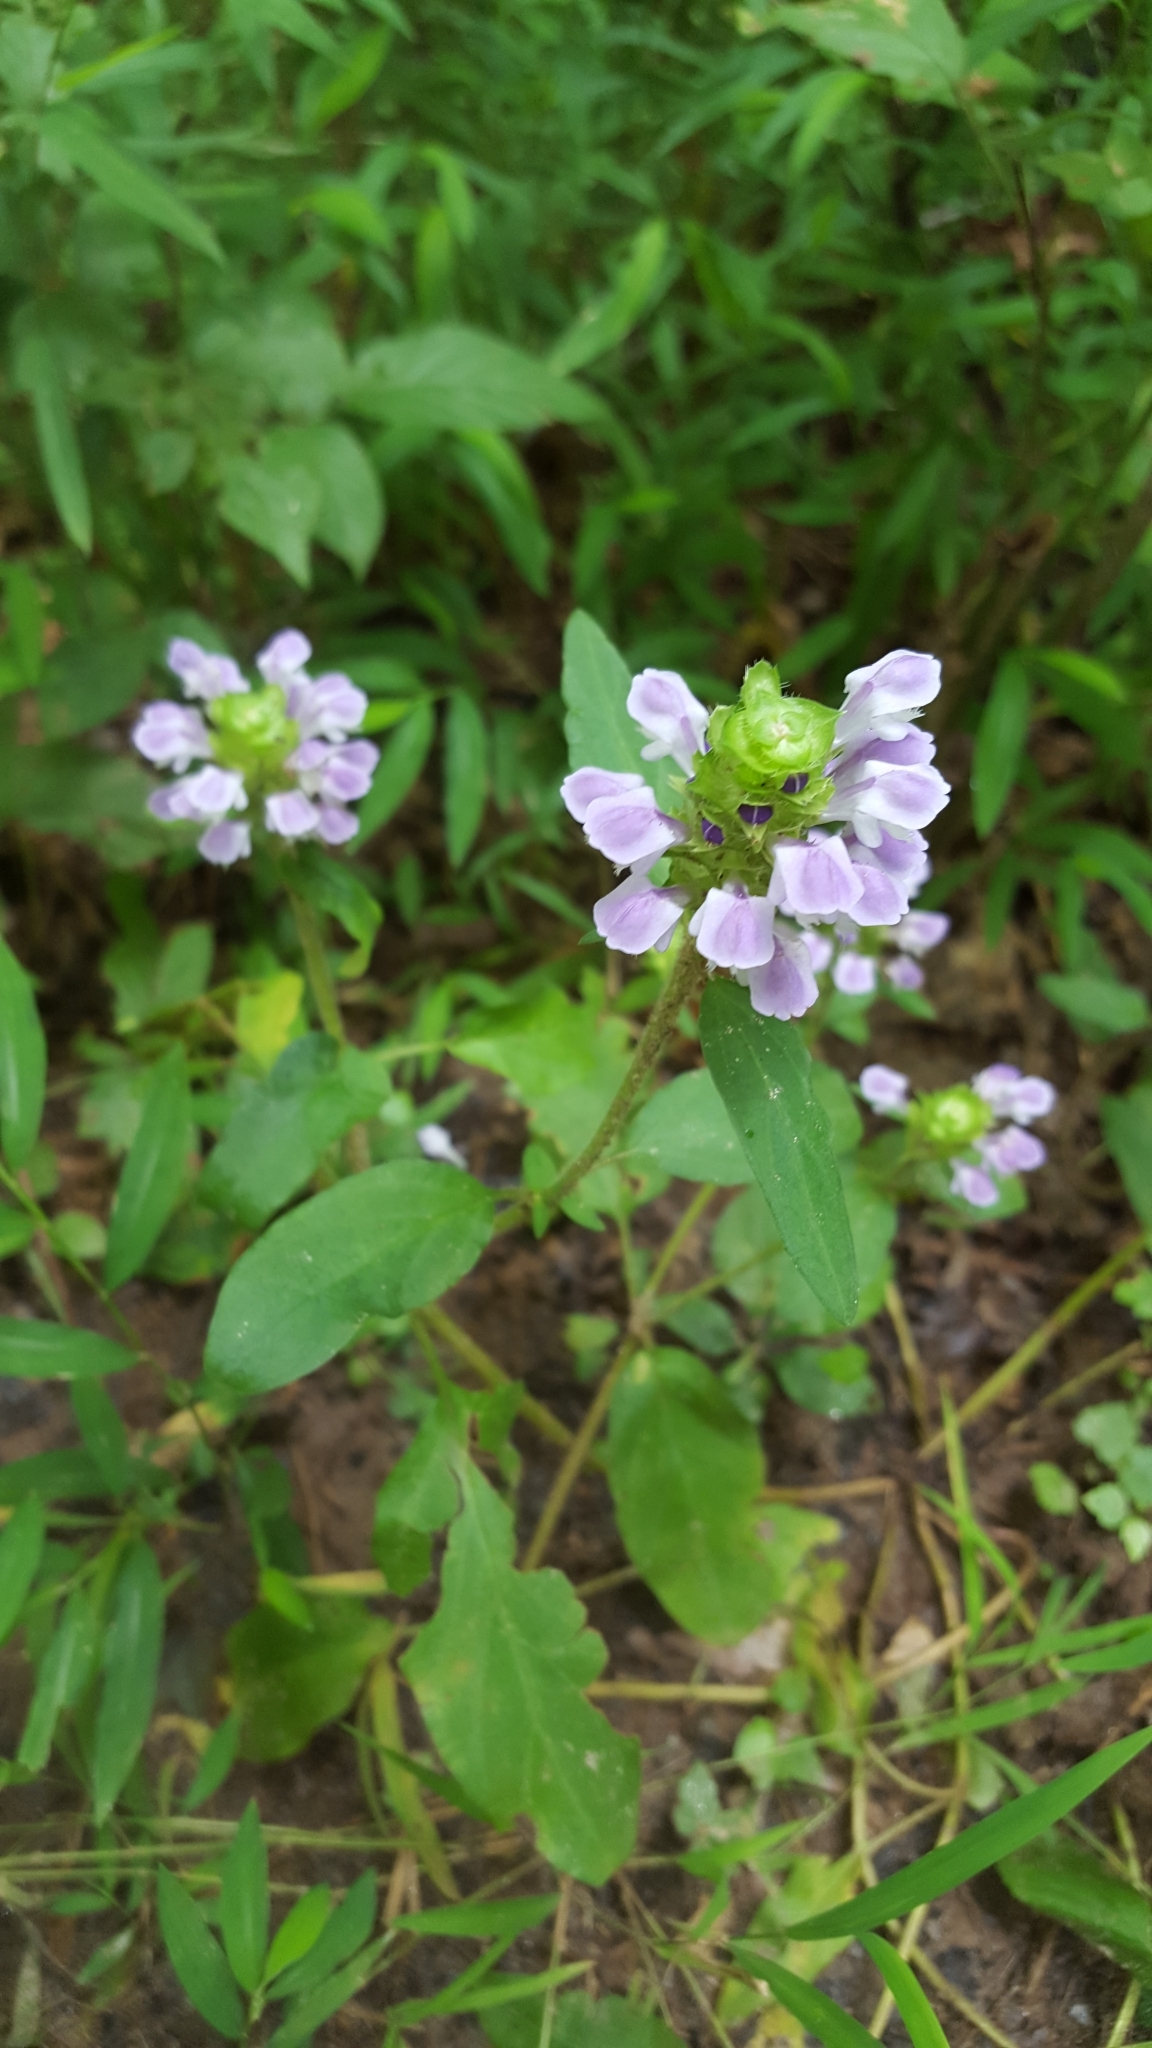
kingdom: Plantae
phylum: Tracheophyta
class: Magnoliopsida
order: Lamiales
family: Lamiaceae
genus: Prunella
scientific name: Prunella vulgaris
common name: Heal-all
